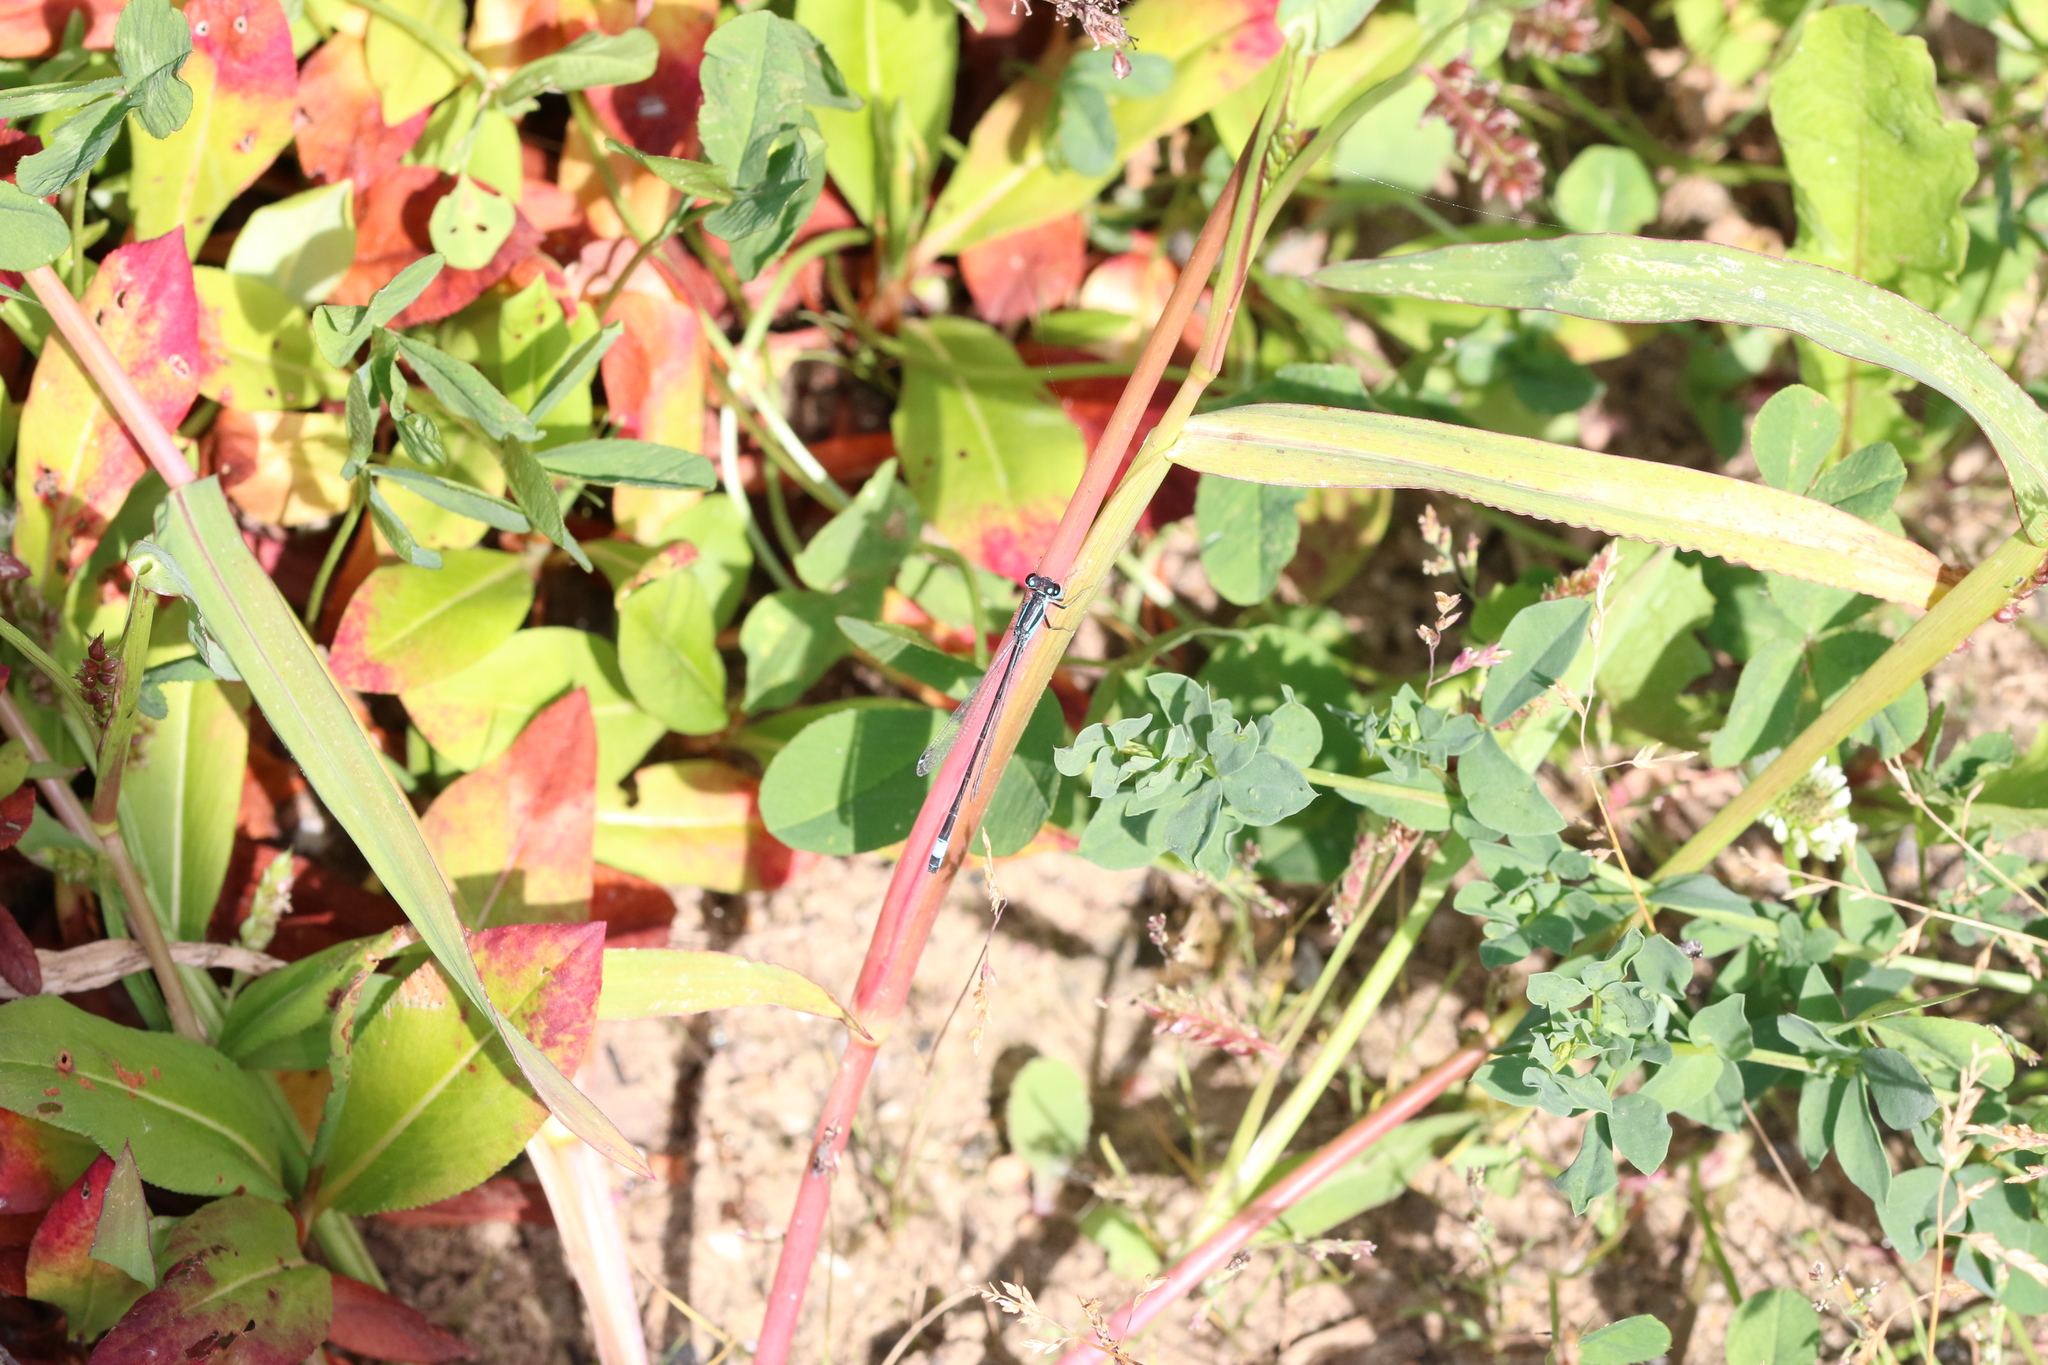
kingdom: Animalia
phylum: Arthropoda
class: Insecta
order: Odonata
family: Coenagrionidae
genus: Ischnura
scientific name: Ischnura elegans
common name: Blue-tailed damselfly
